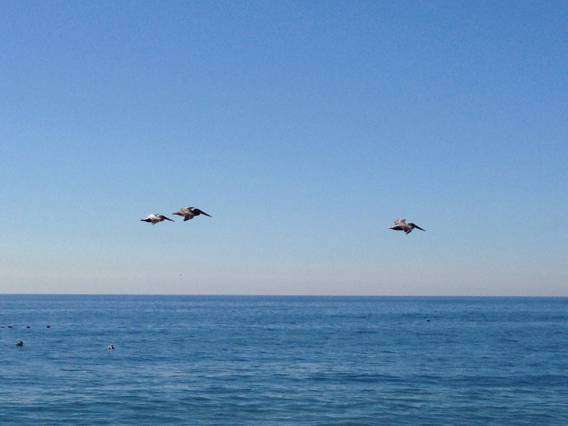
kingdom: Animalia
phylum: Chordata
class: Aves
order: Pelecaniformes
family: Pelecanidae
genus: Pelecanus
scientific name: Pelecanus occidentalis
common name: Brown pelican
